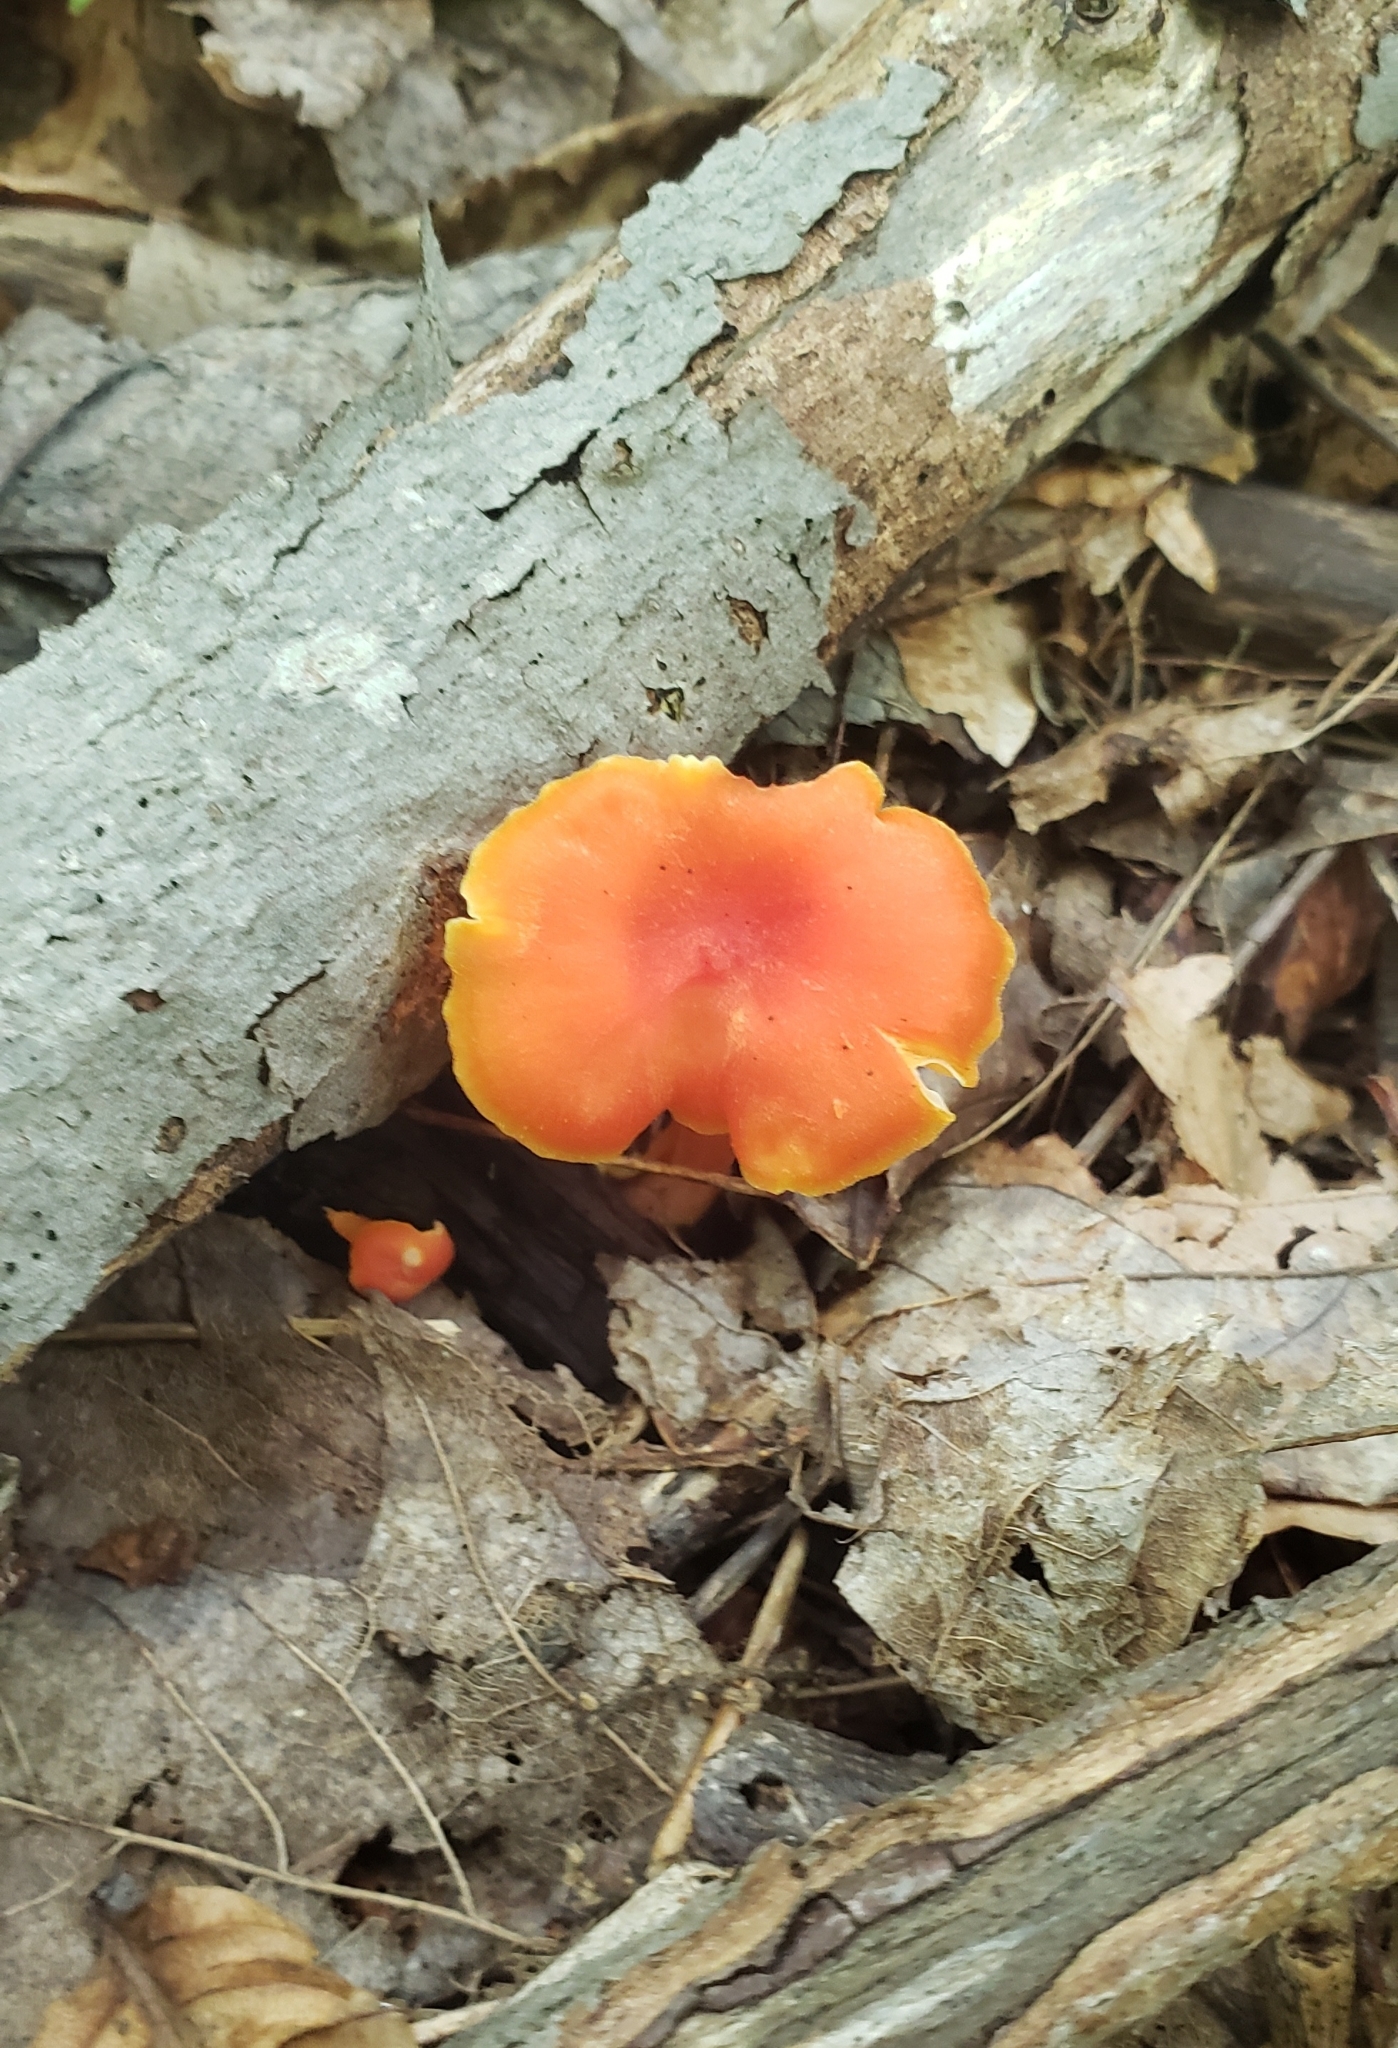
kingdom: Fungi
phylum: Basidiomycota
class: Agaricomycetes
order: Agaricales
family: Hygrophoraceae
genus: Hygrocybe
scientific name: Hygrocybe miniata
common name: Vermilion waxcap
